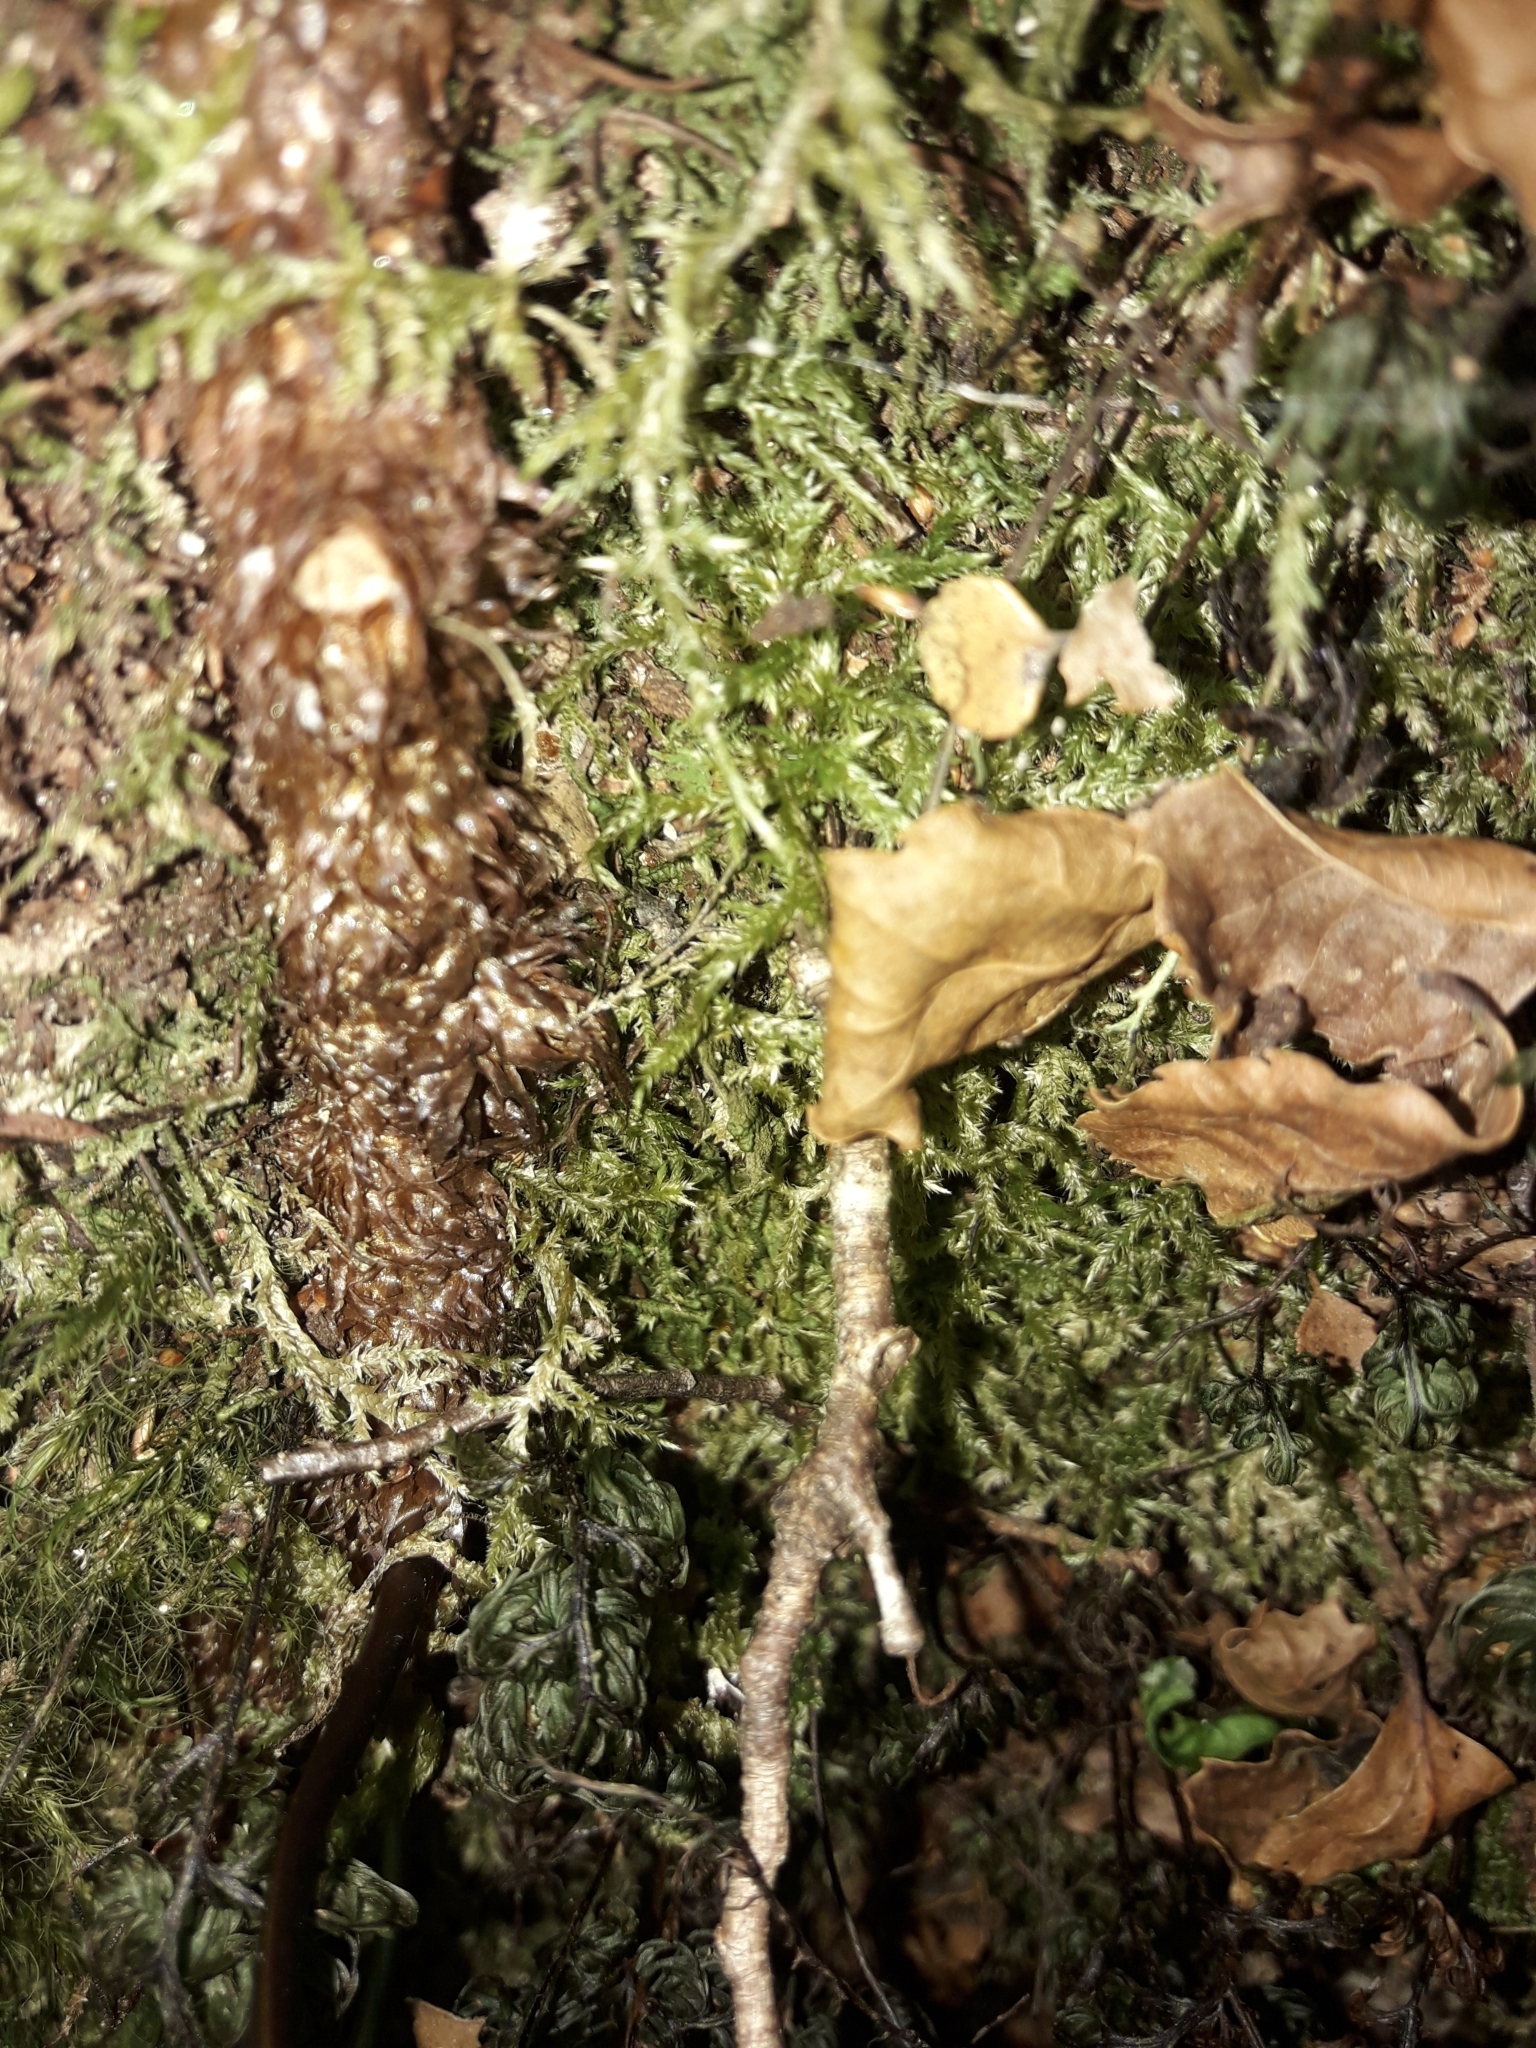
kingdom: Plantae
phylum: Tracheophyta
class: Polypodiopsida
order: Polypodiales
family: Polypodiaceae
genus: Lecanopteris
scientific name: Lecanopteris novae-zealandiae
